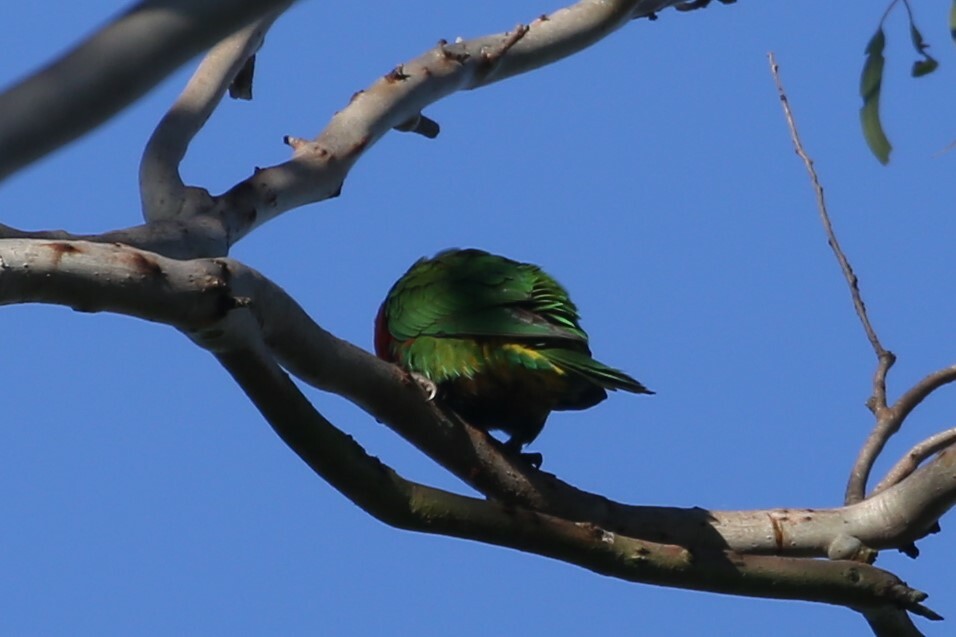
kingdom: Animalia
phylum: Chordata
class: Aves
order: Psittaciformes
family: Psittacidae
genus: Trichoglossus
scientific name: Trichoglossus
